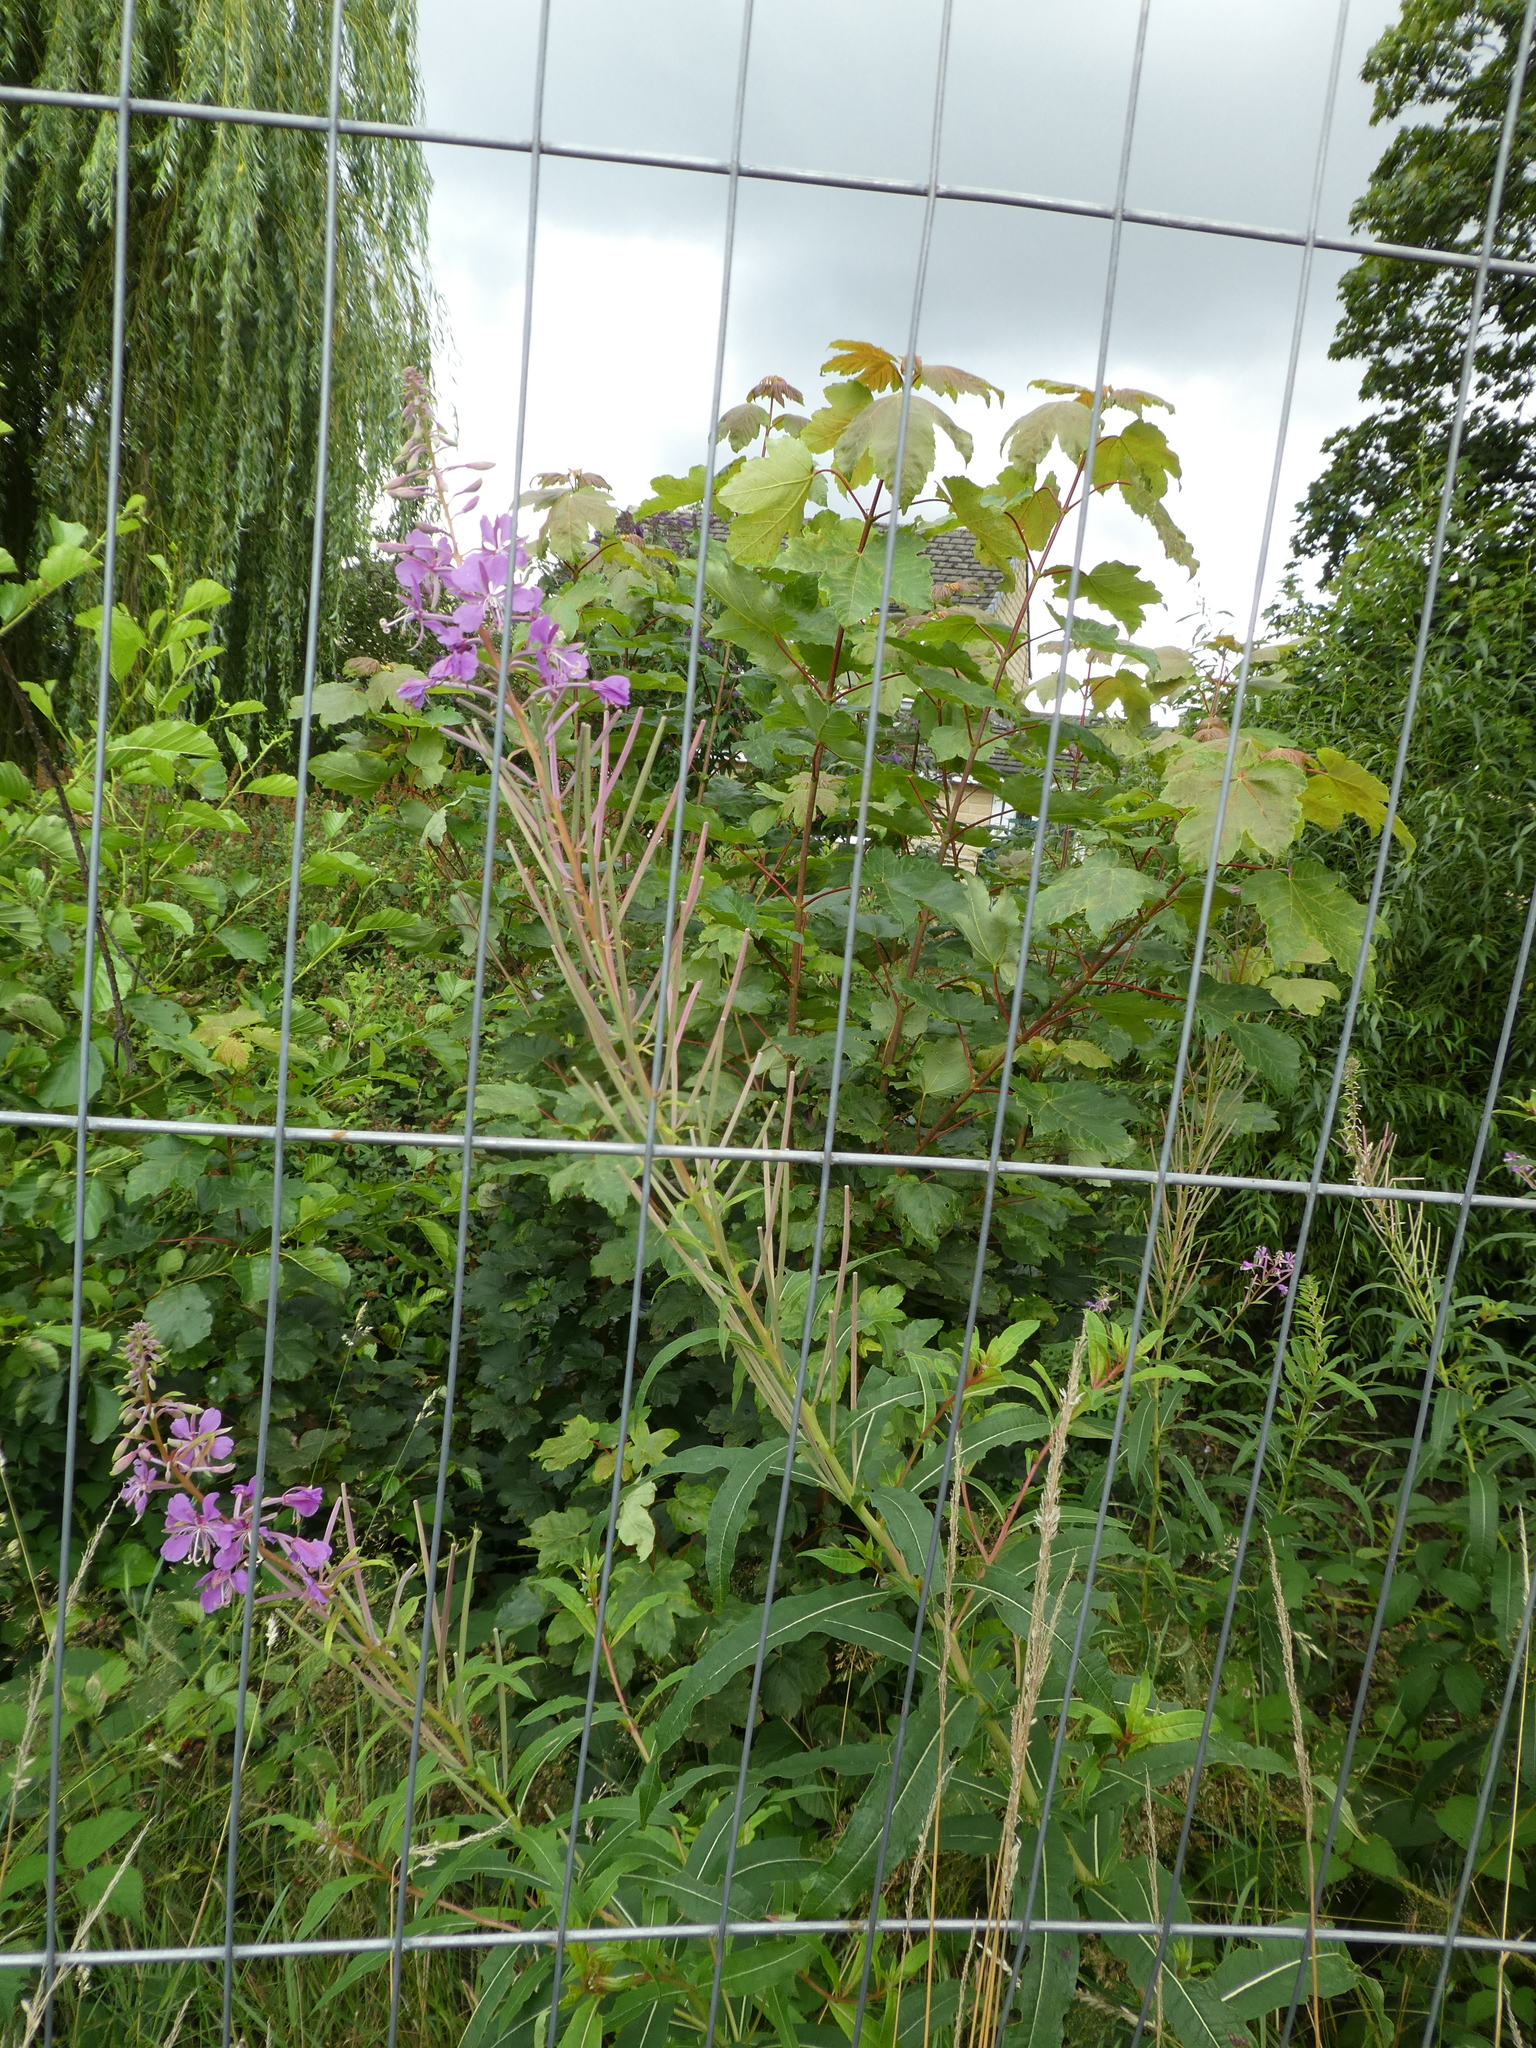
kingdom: Plantae
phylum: Tracheophyta
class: Magnoliopsida
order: Myrtales
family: Onagraceae
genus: Chamaenerion
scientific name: Chamaenerion angustifolium
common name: Fireweed
